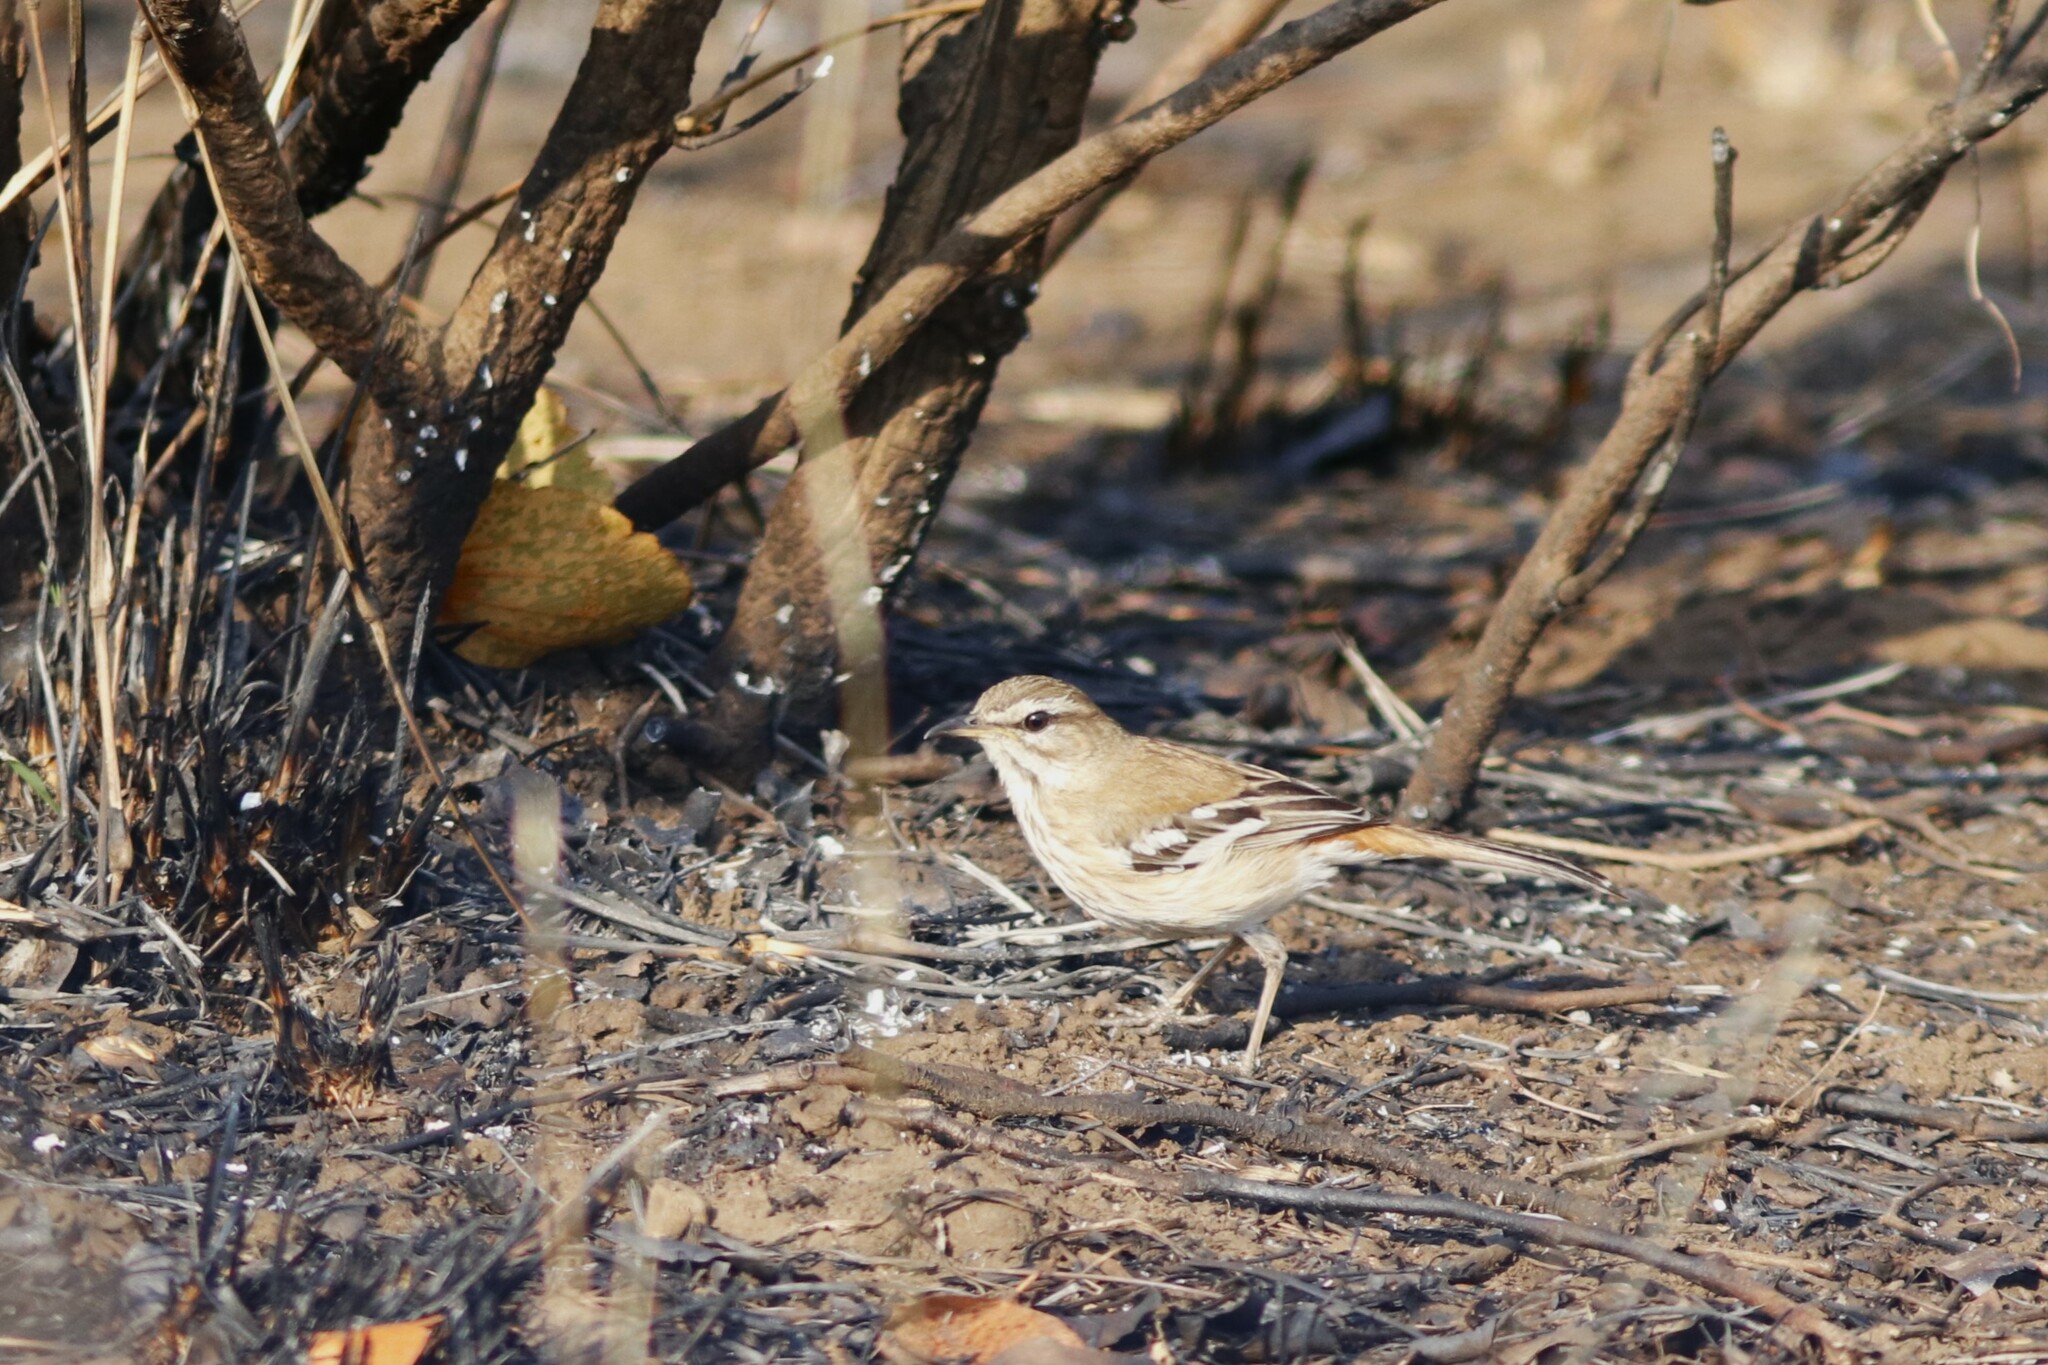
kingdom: Animalia
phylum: Chordata
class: Aves
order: Passeriformes
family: Muscicapidae
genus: Erythropygia
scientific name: Erythropygia leucophrys
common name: White-browed scrub robin
